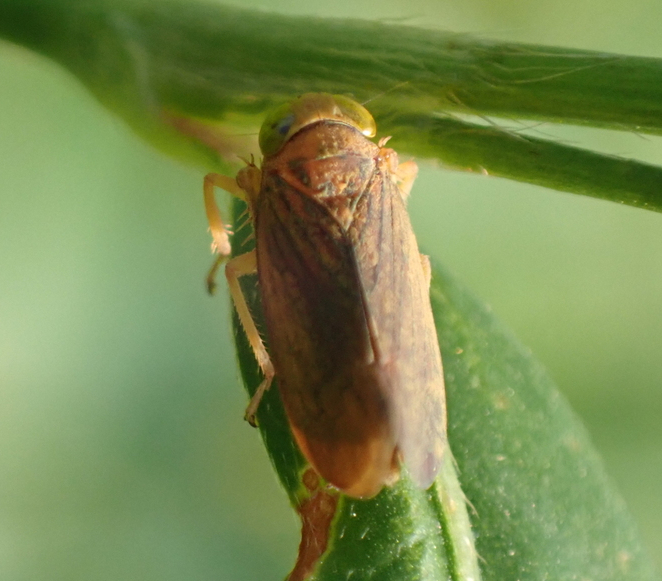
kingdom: Animalia
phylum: Arthropoda
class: Insecta
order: Hemiptera
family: Cicadellidae
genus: Jikradia
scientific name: Jikradia olitoria
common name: Coppery leafhopper
